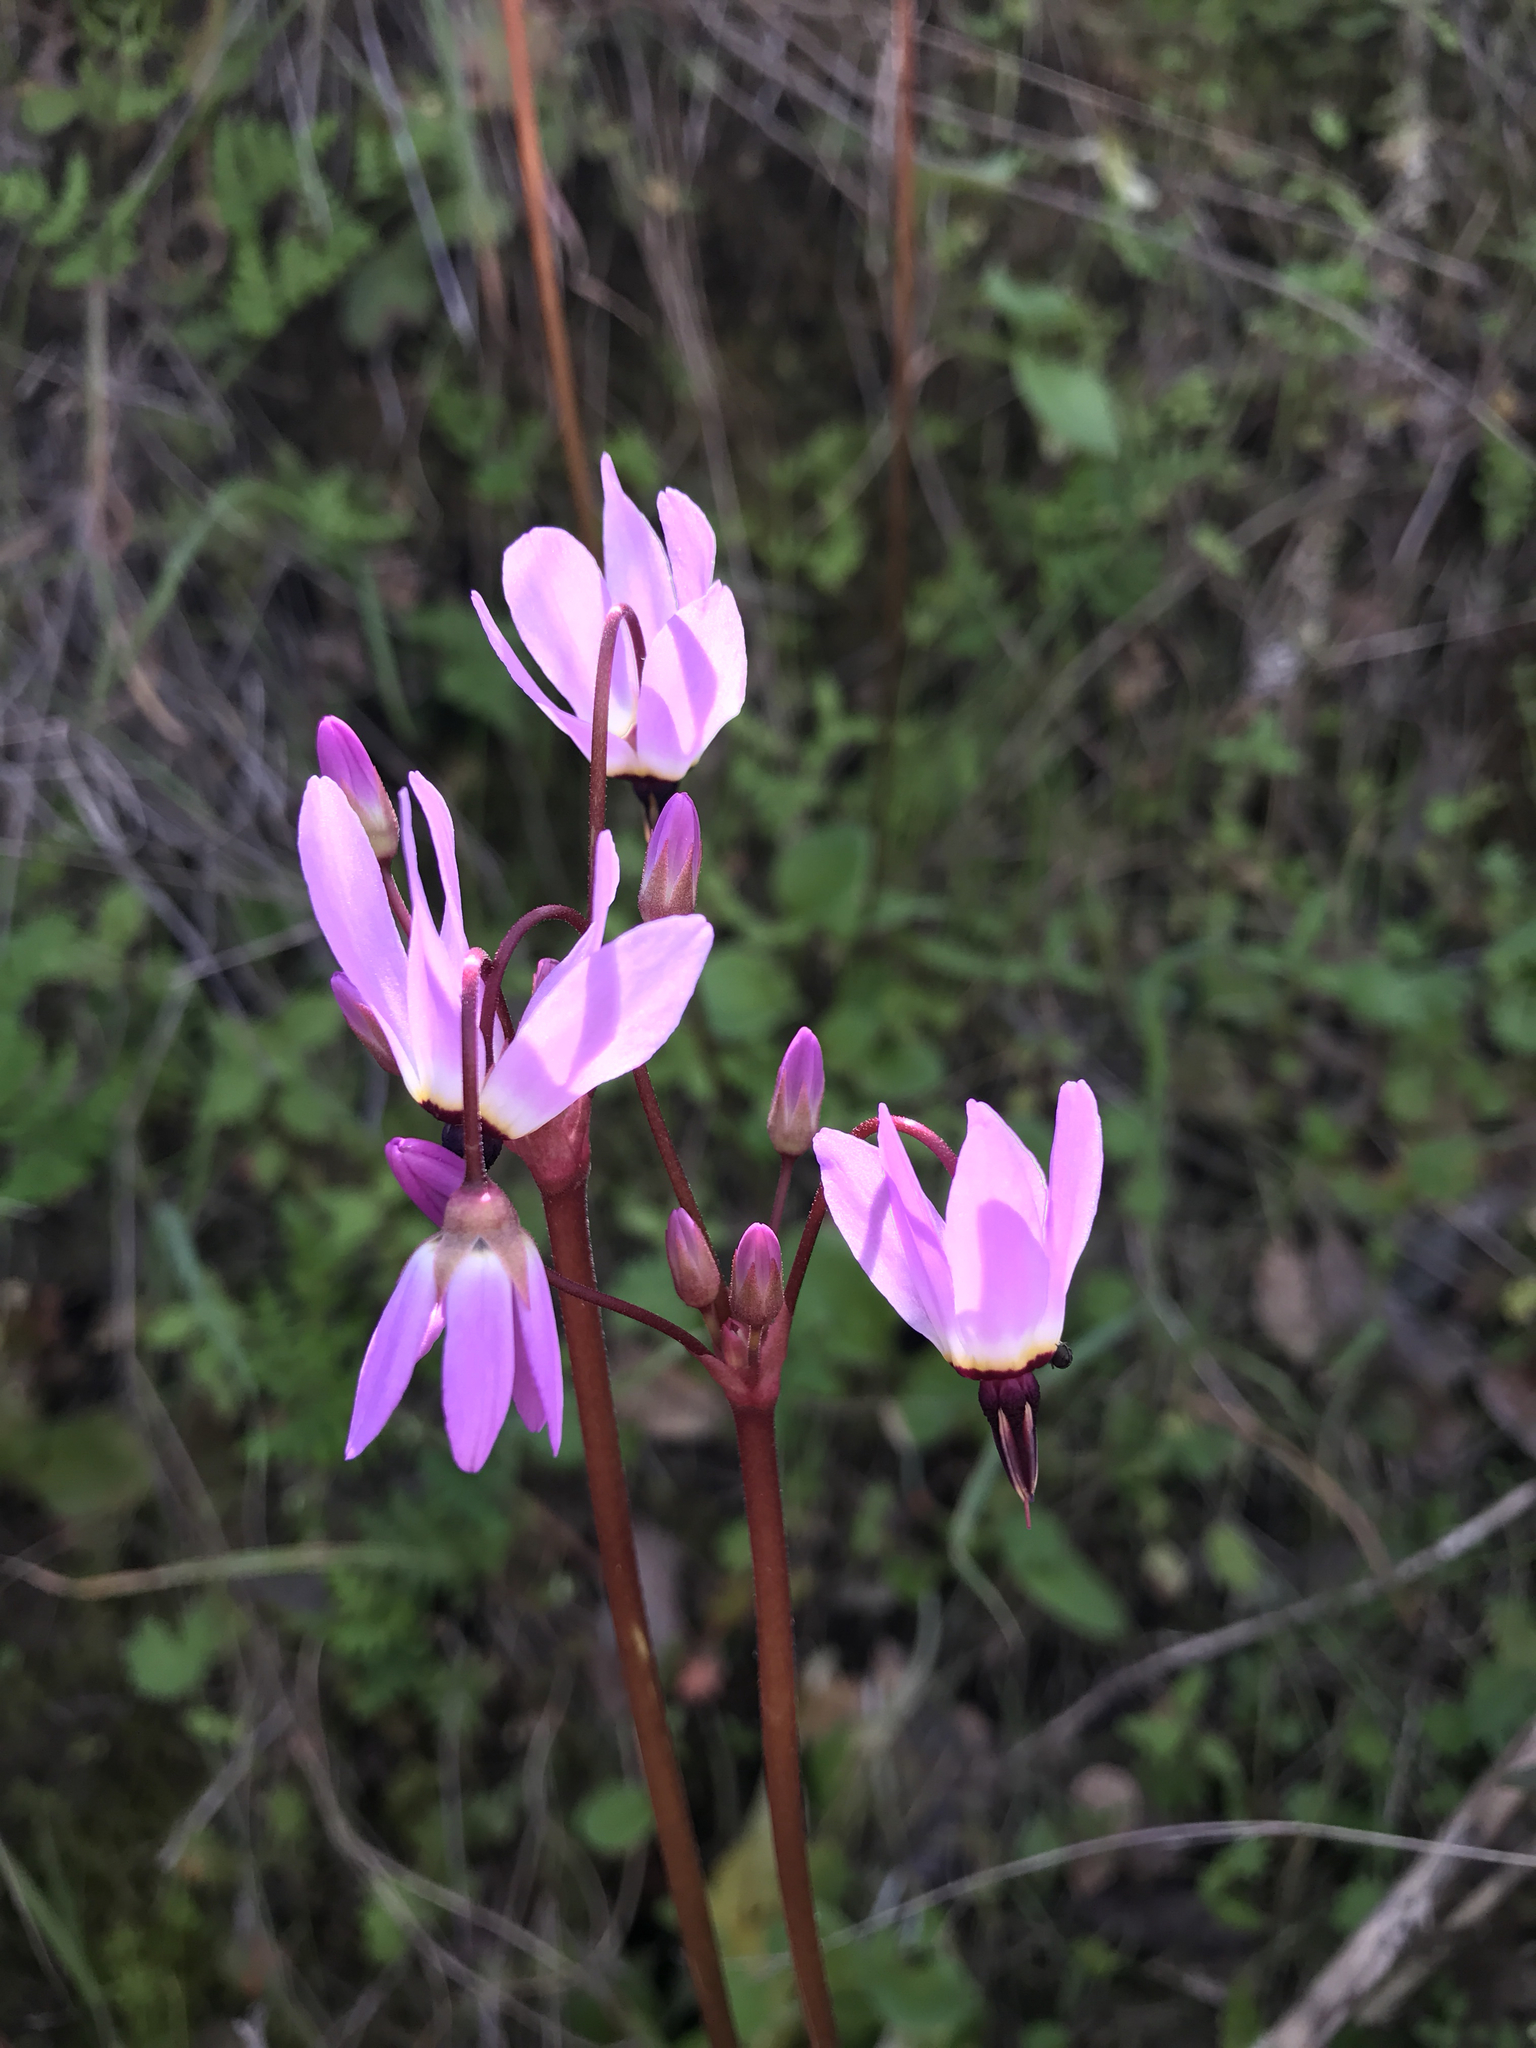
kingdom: Plantae
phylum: Tracheophyta
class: Magnoliopsida
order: Ericales
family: Primulaceae
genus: Dodecatheon
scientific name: Dodecatheon hendersonii
